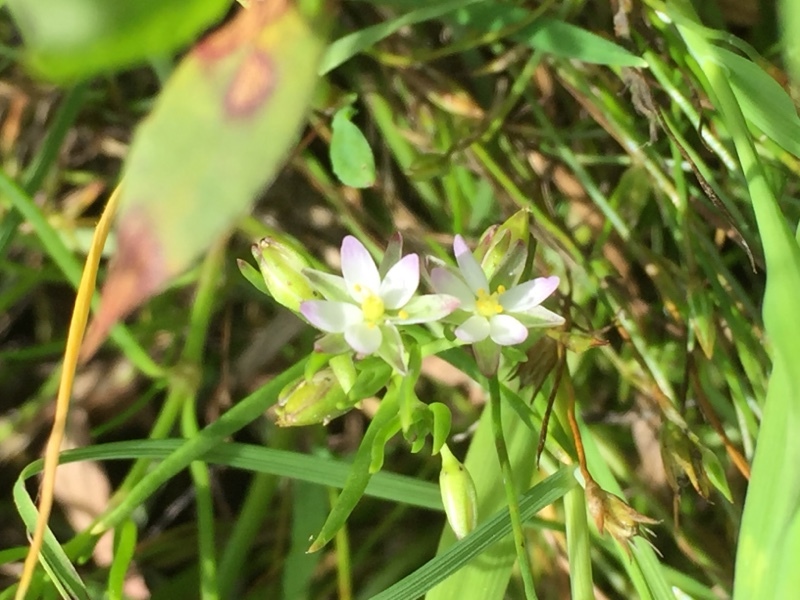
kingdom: Plantae
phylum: Tracheophyta
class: Magnoliopsida
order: Caryophyllales
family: Caryophyllaceae
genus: Spergularia
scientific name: Spergularia marina
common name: Lesser sea-spurrey
